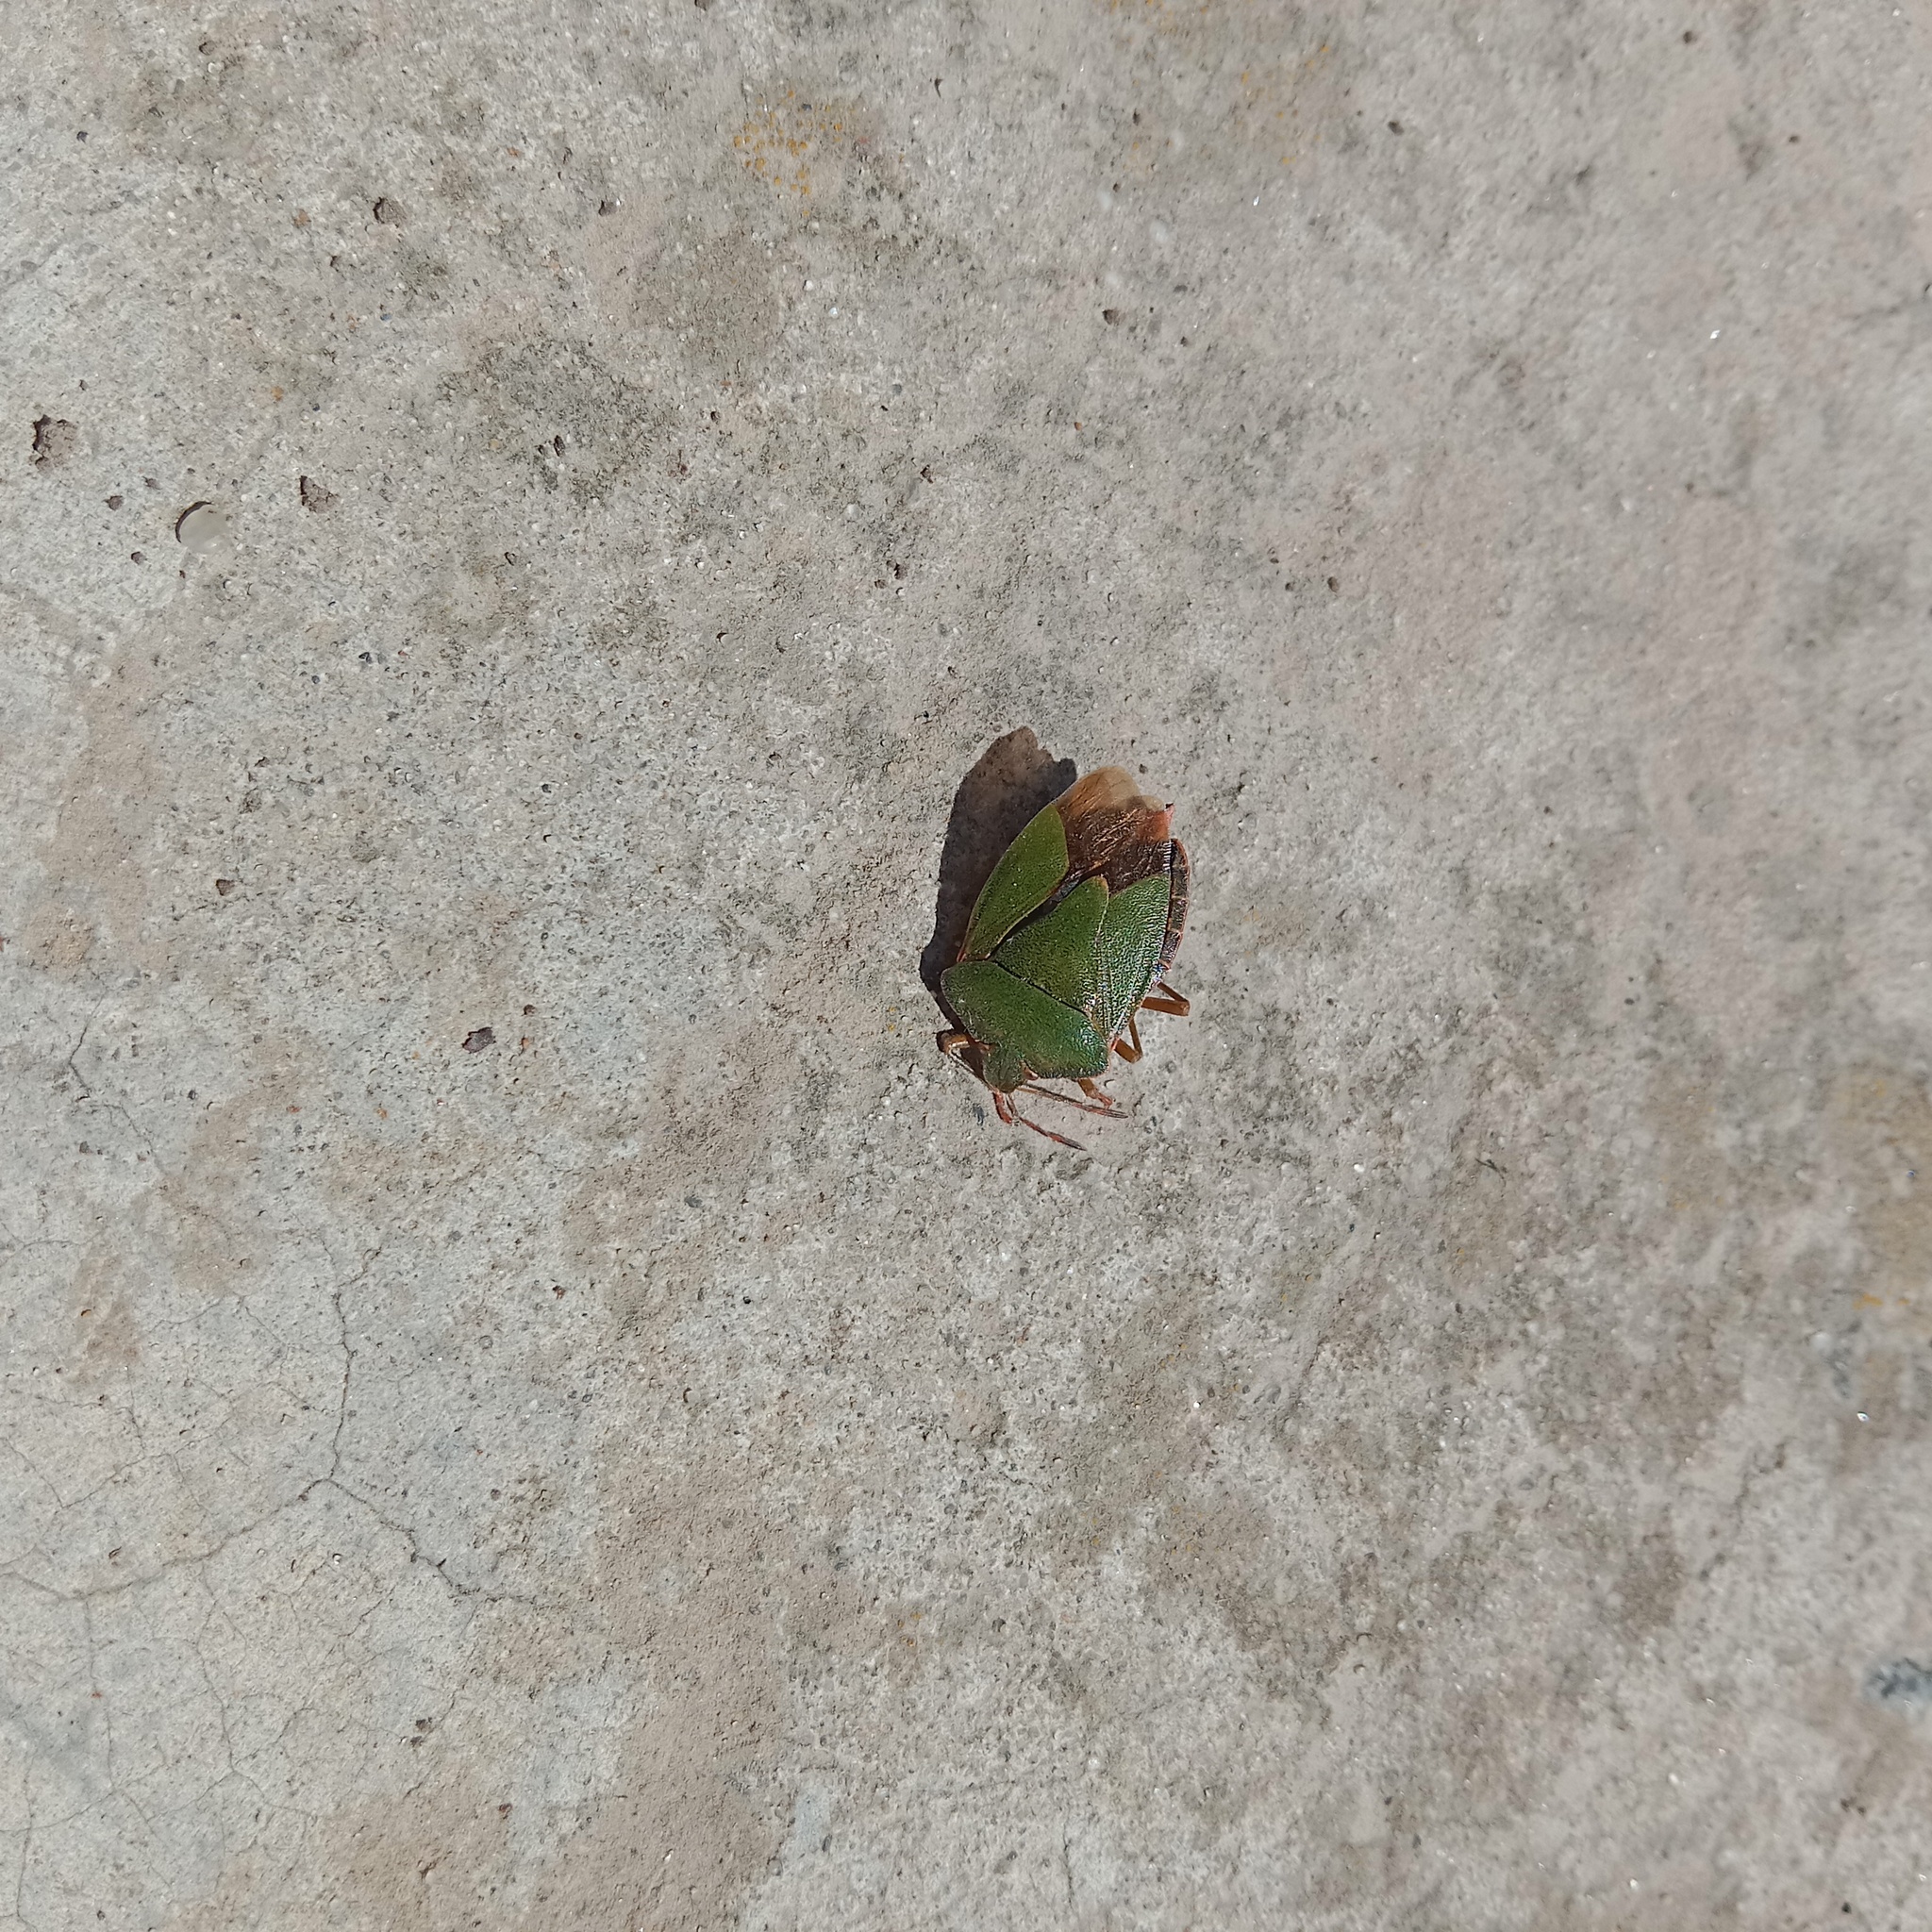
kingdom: Animalia
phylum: Arthropoda
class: Insecta
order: Hemiptera
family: Pentatomidae
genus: Palomena
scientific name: Palomena prasina
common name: Green shieldbug
